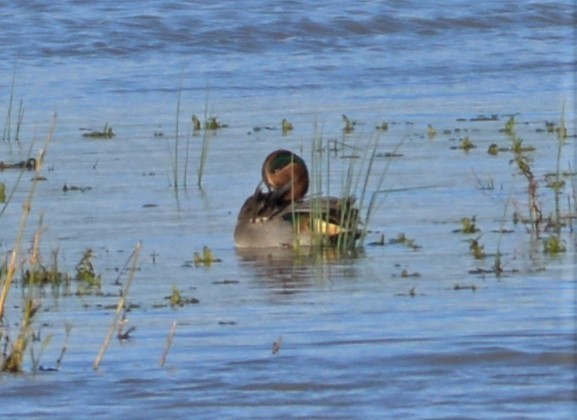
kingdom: Animalia
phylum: Chordata
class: Aves
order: Anseriformes
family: Anatidae
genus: Anas
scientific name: Anas crecca
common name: Eurasian teal
